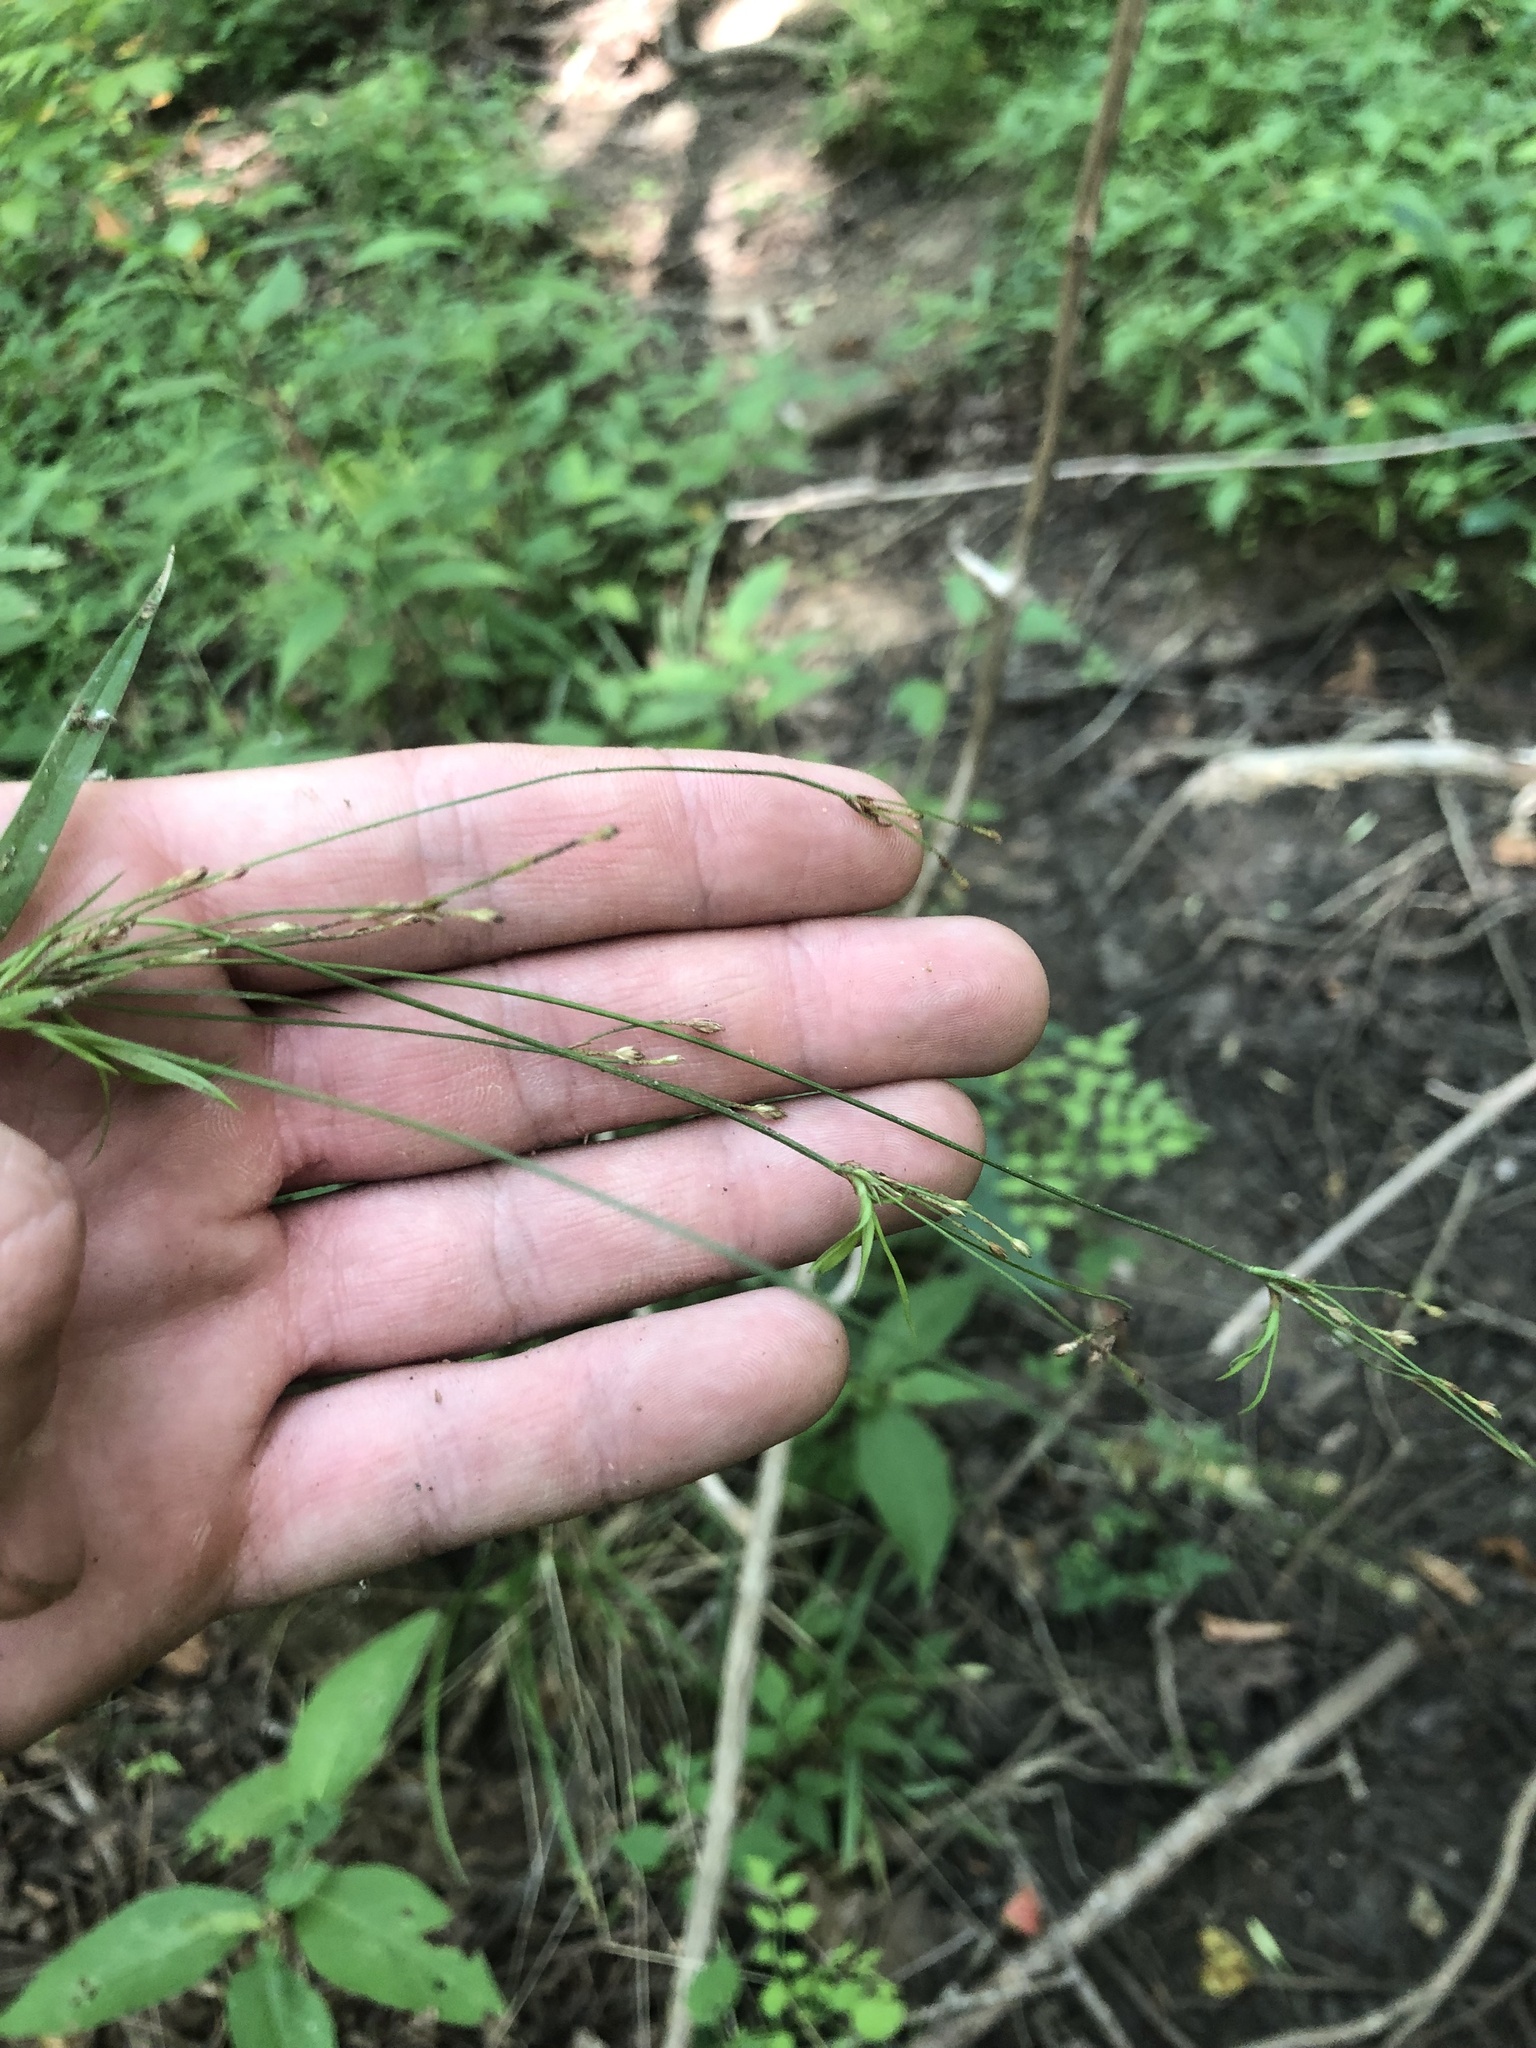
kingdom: Plantae
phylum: Tracheophyta
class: Liliopsida
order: Poales
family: Cyperaceae
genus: Scirpus
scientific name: Scirpus lineatus
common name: Drooping bulrush
